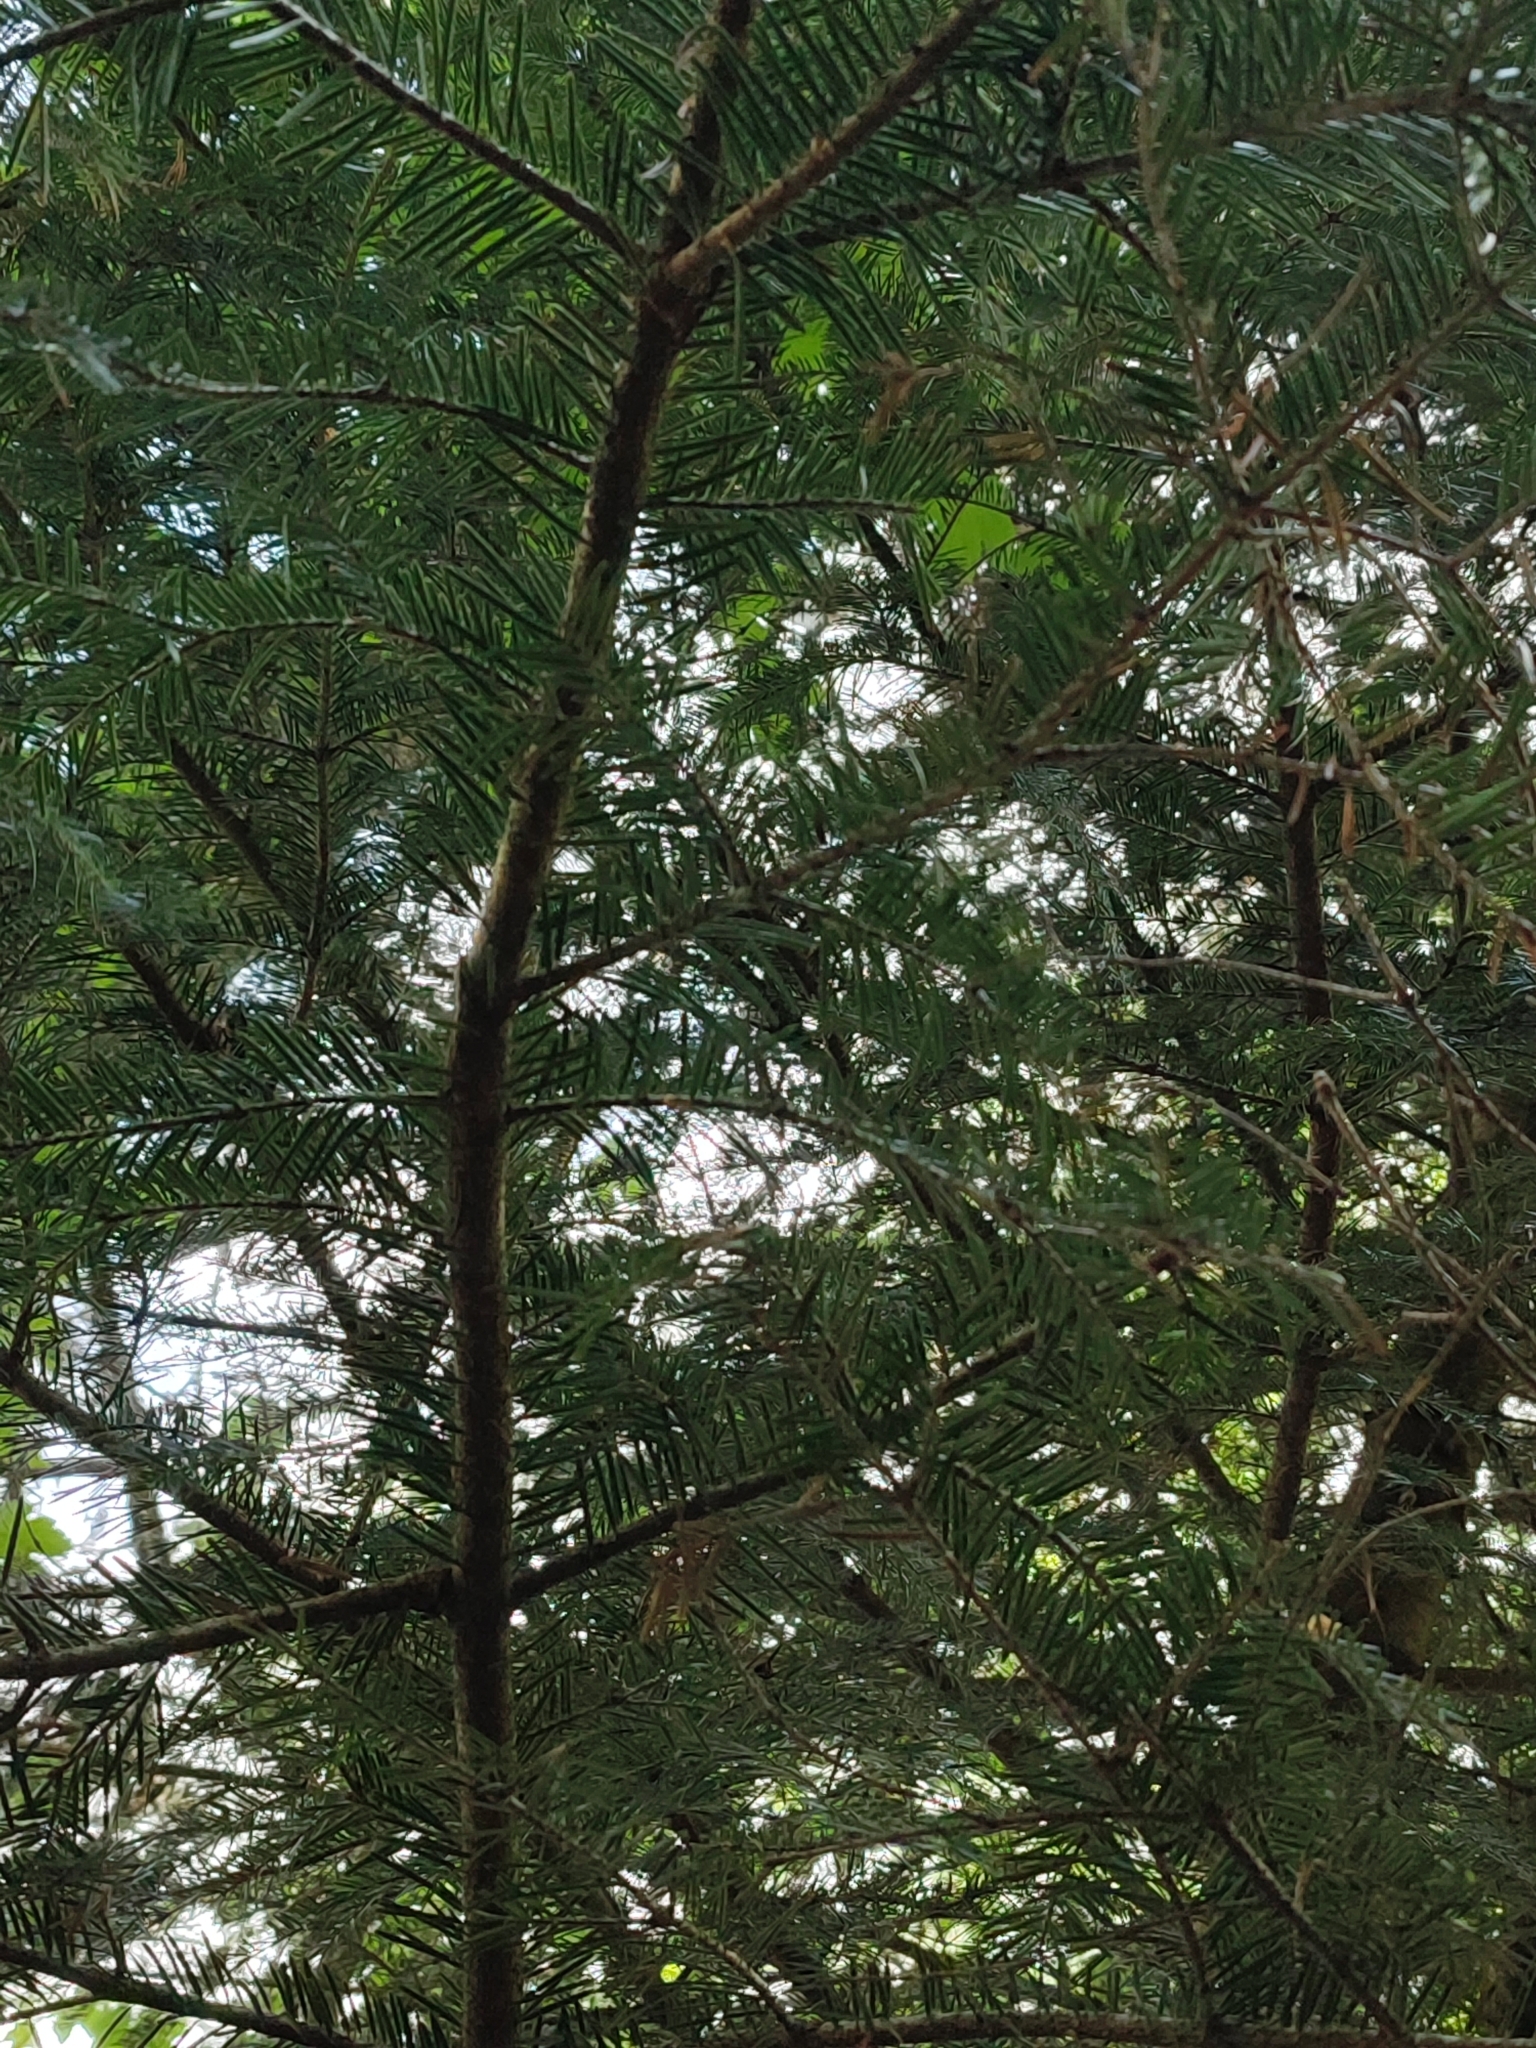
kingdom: Plantae
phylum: Tracheophyta
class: Pinopsida
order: Pinales
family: Pinaceae
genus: Abies
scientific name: Abies alba
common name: Silver fir
